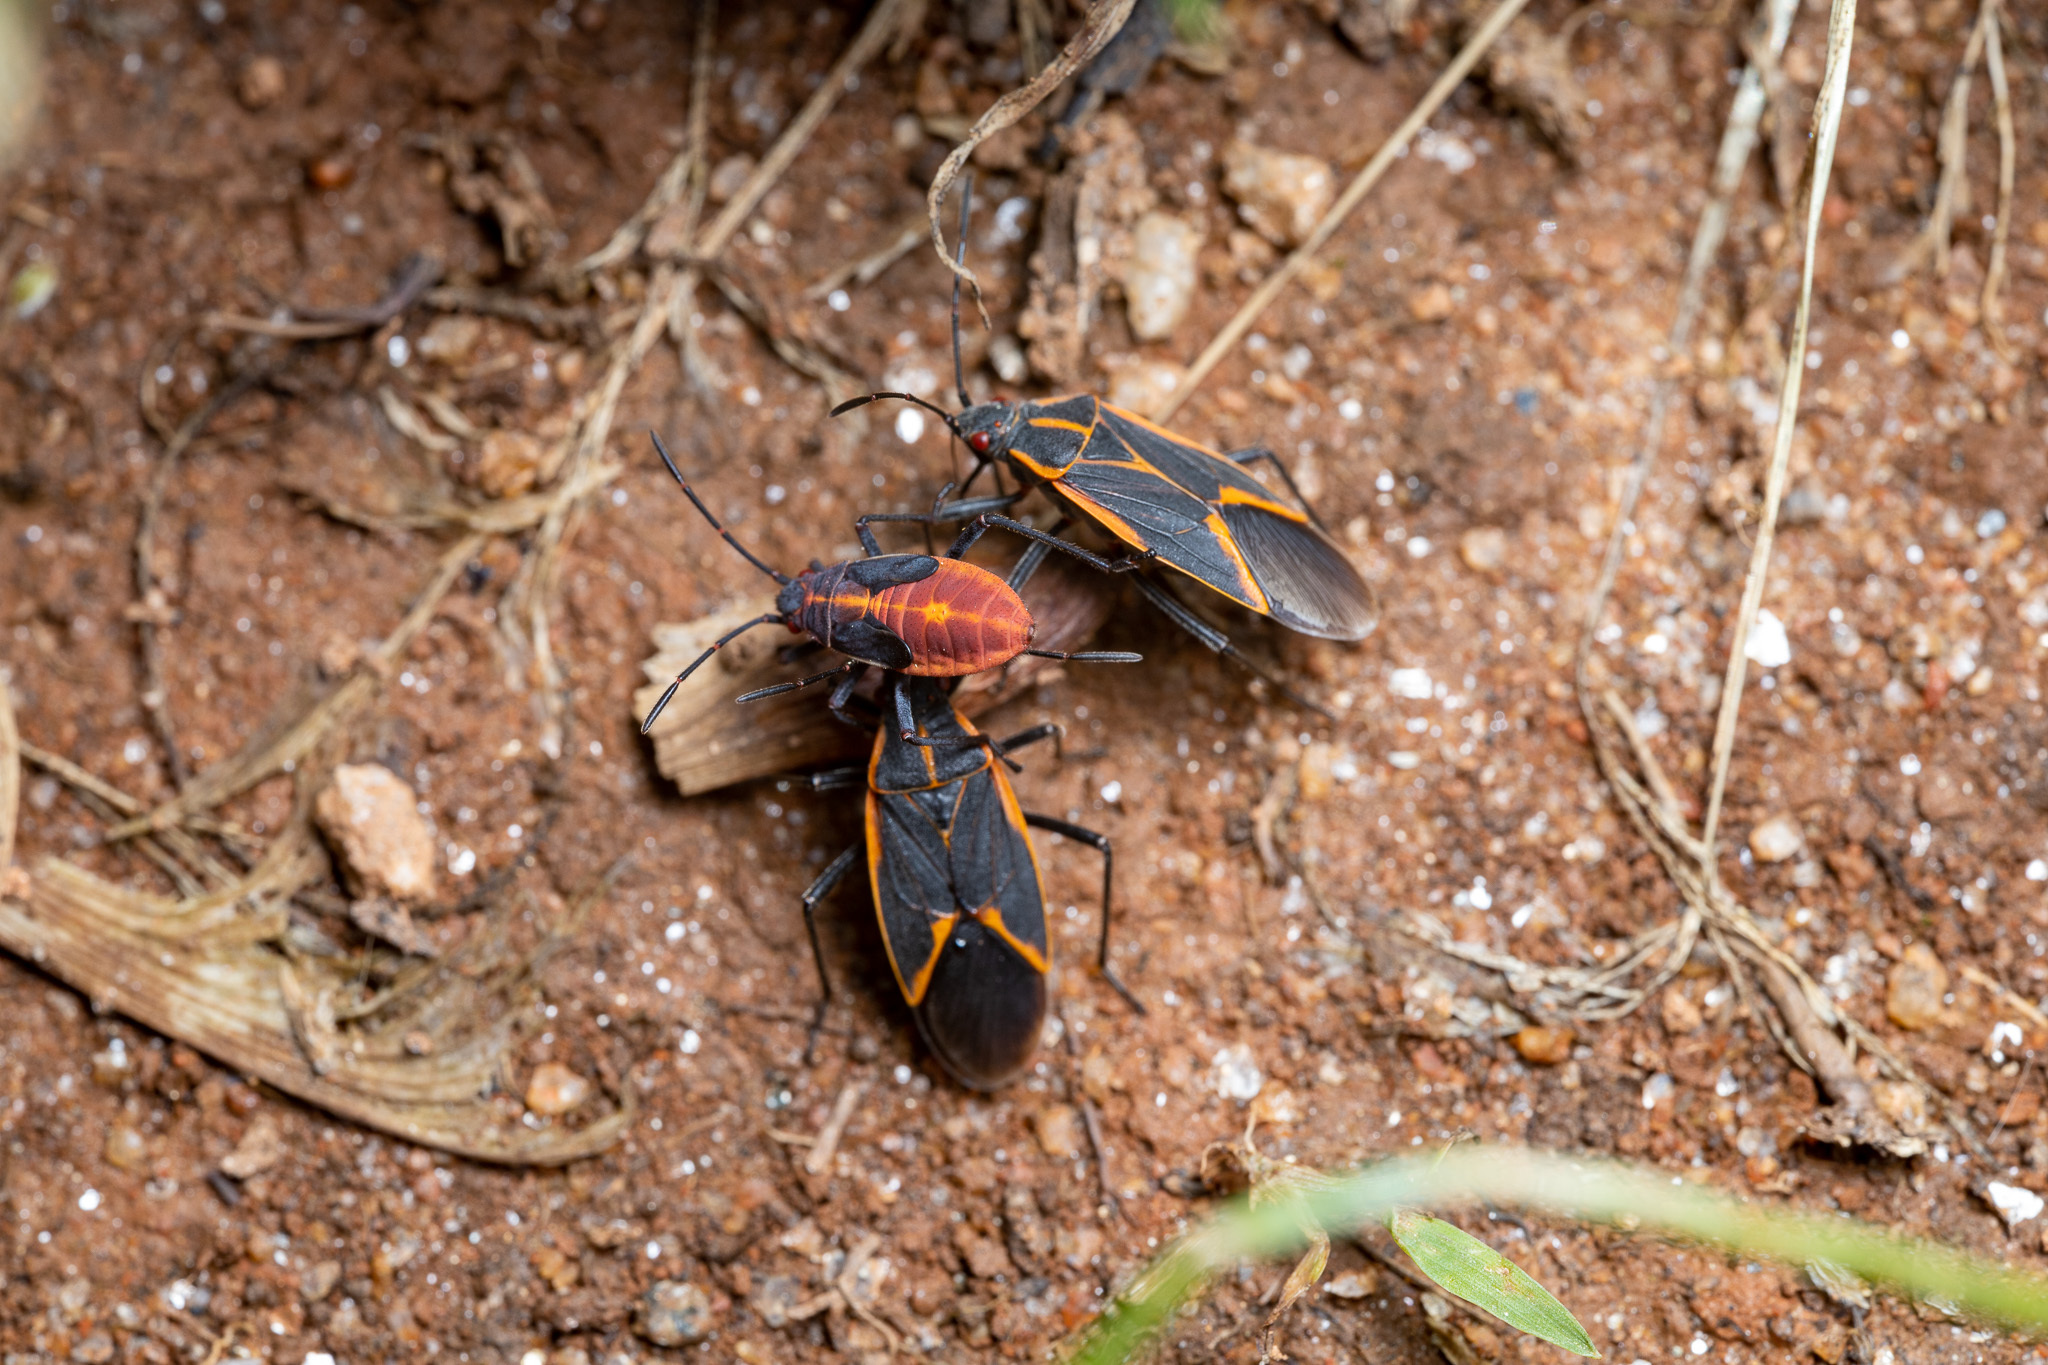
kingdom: Animalia
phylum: Arthropoda
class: Insecta
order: Hemiptera
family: Rhopalidae
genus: Boisea
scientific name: Boisea trivittata
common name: Boxelder bug
